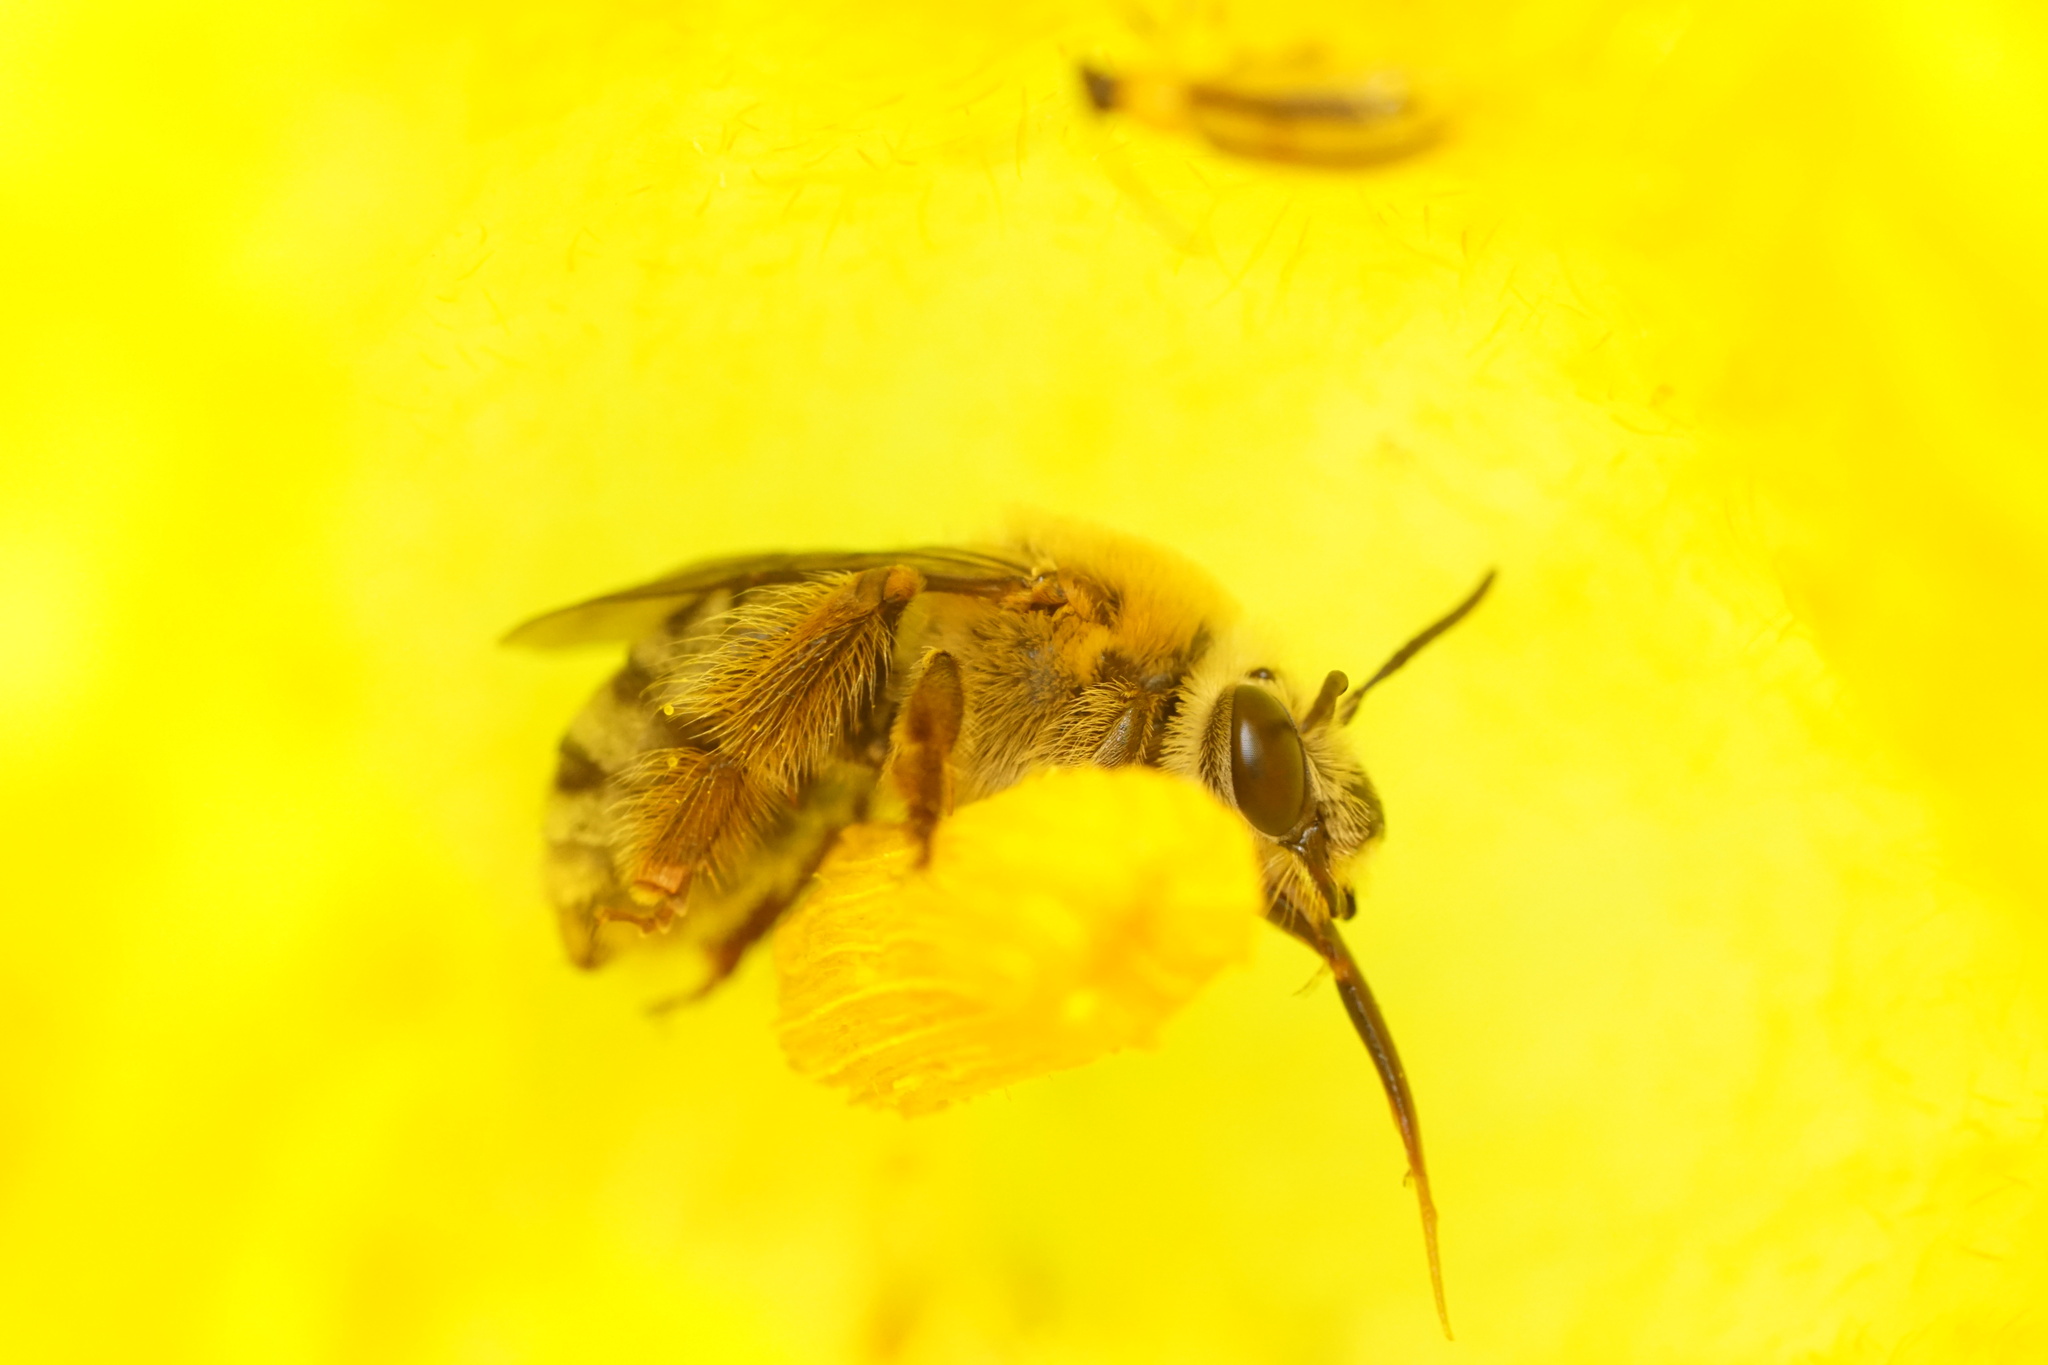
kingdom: Animalia
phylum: Arthropoda
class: Insecta
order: Hymenoptera
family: Apidae
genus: Peponapis
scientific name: Peponapis pruinosa
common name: Pruinose squash bee
